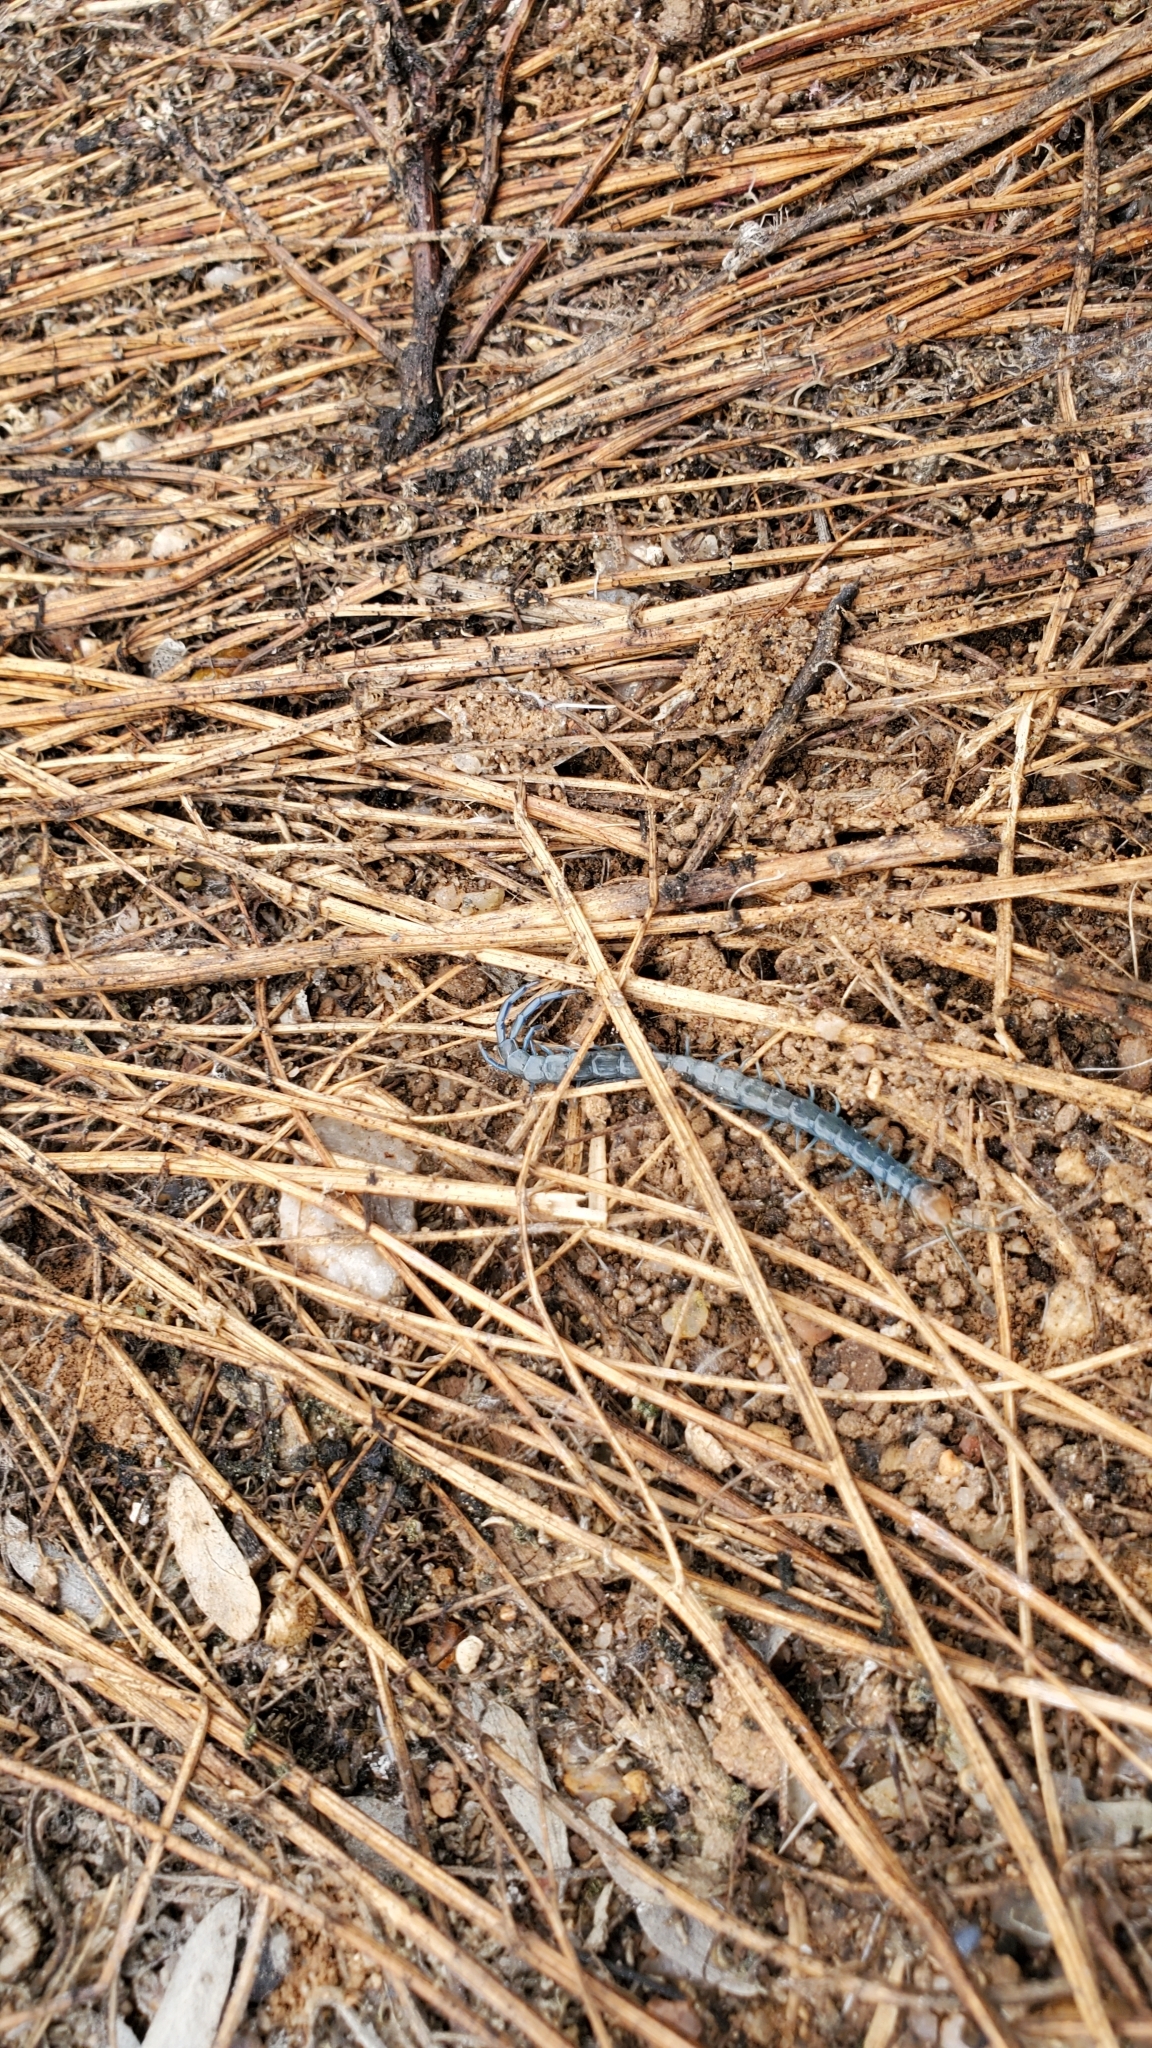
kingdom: Animalia
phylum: Arthropoda
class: Chilopoda
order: Scolopendromorpha
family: Scolopendridae
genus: Scolopendra
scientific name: Scolopendra polymorpha
